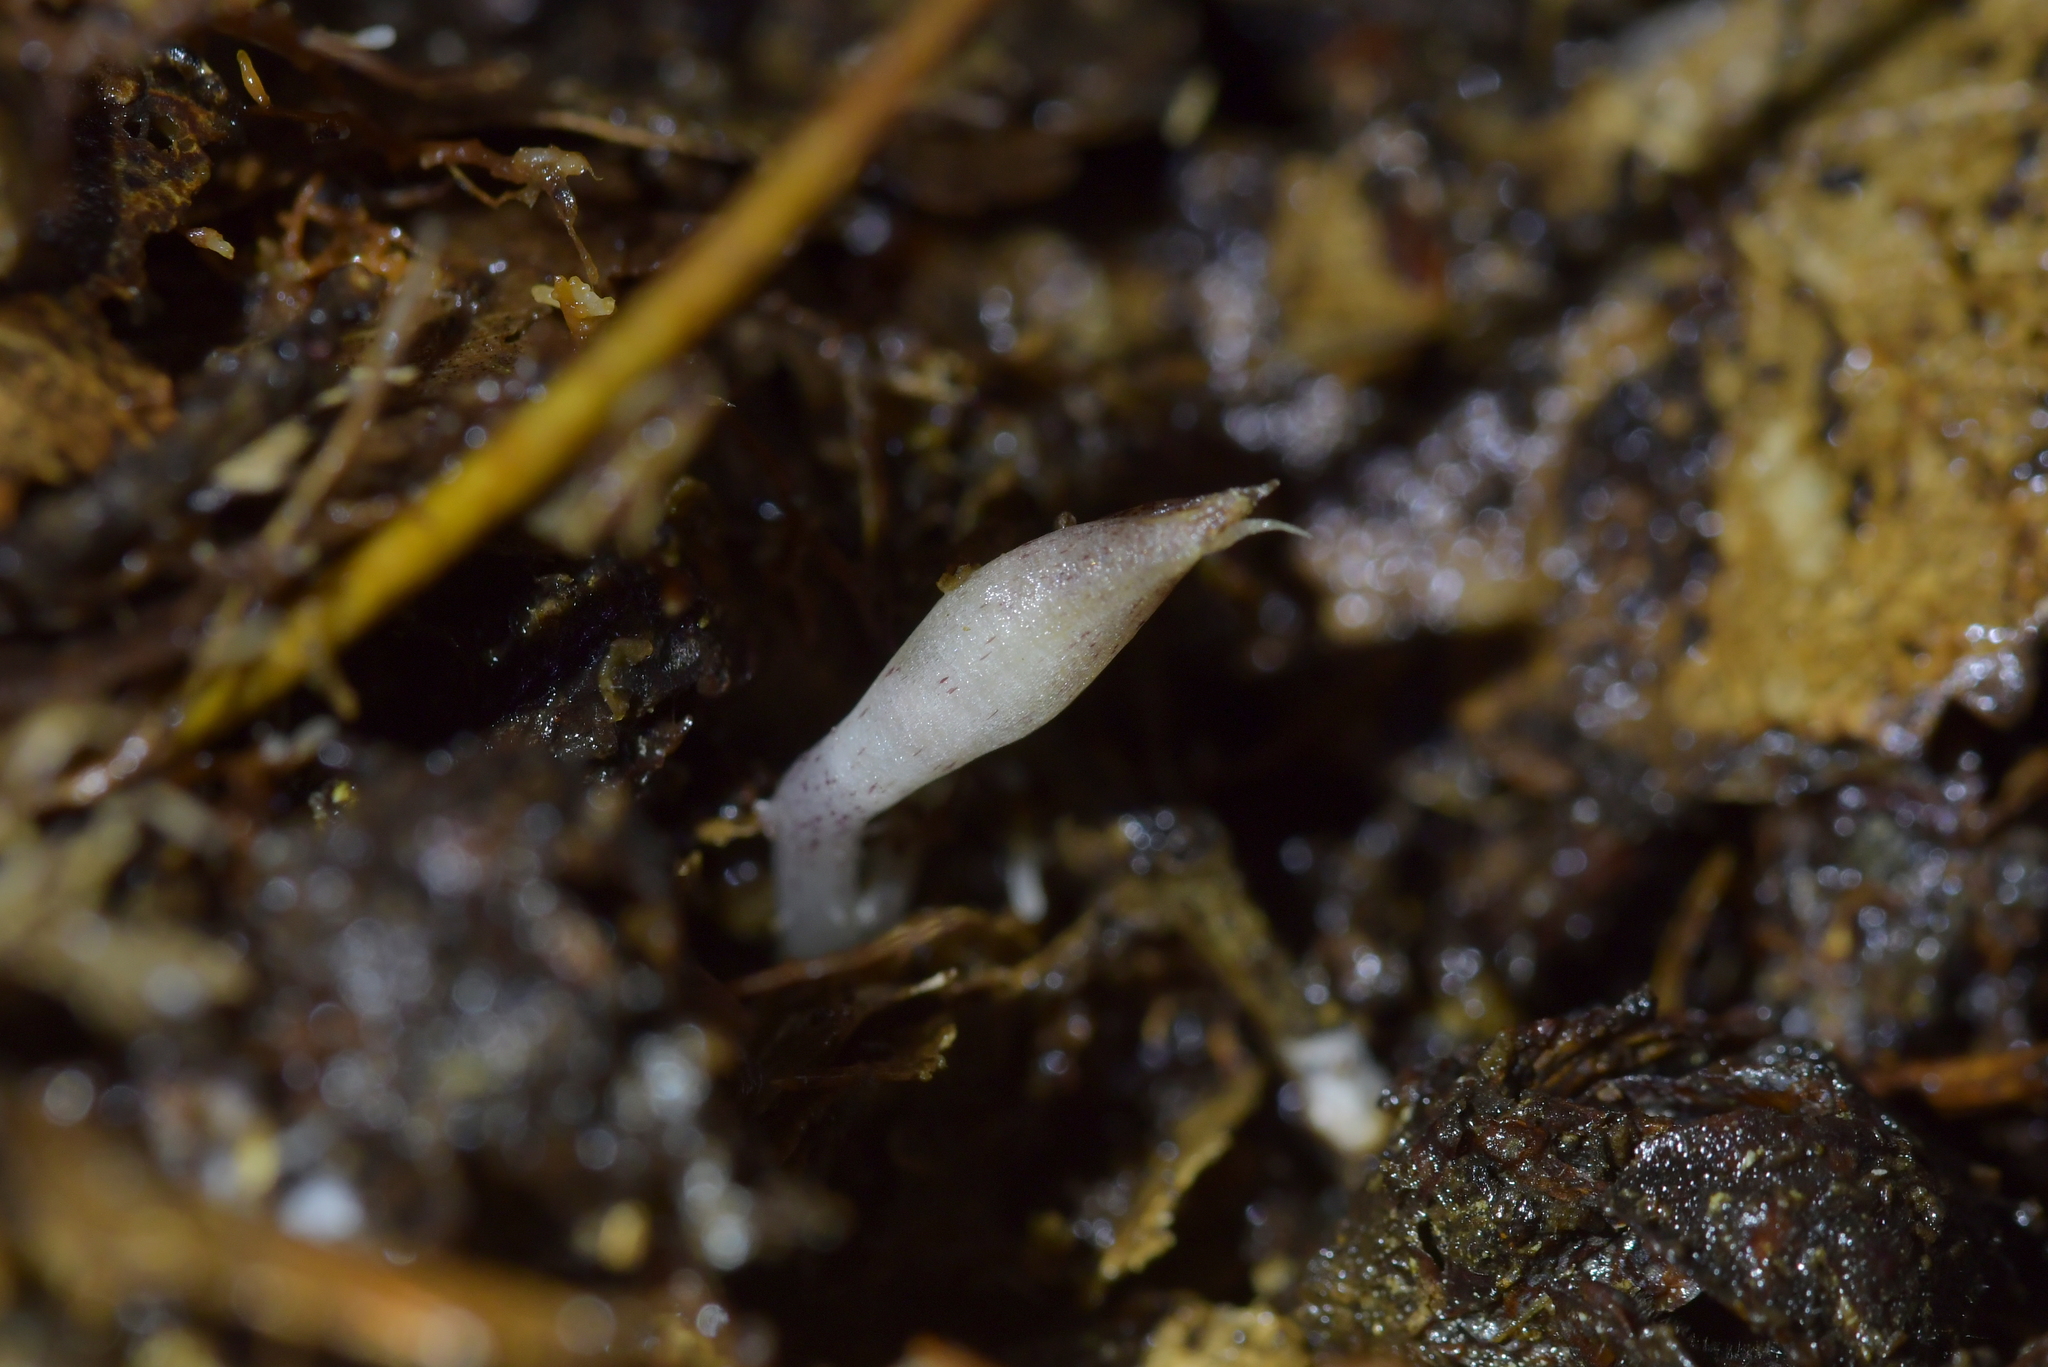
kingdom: Plantae
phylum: Tracheophyta
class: Liliopsida
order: Asparagales
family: Orchidaceae
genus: Corybas
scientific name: Corybas cryptanthus
